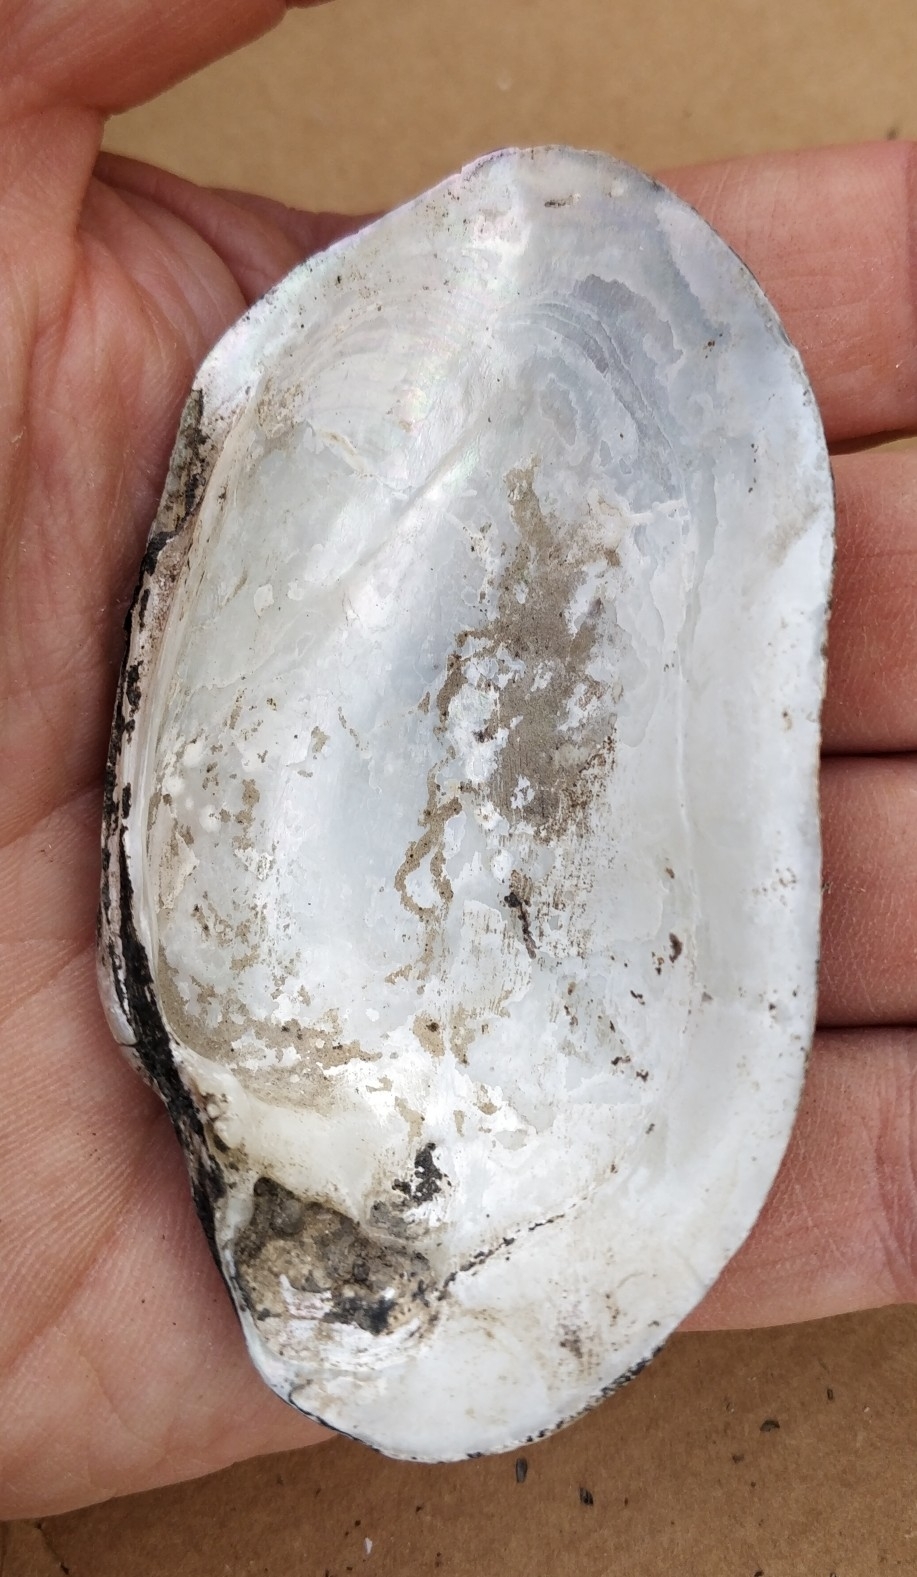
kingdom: Animalia
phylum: Mollusca
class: Bivalvia
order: Unionida
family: Unionidae
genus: Lampsilis
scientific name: Lampsilis siliquoidea
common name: Fatmucket
